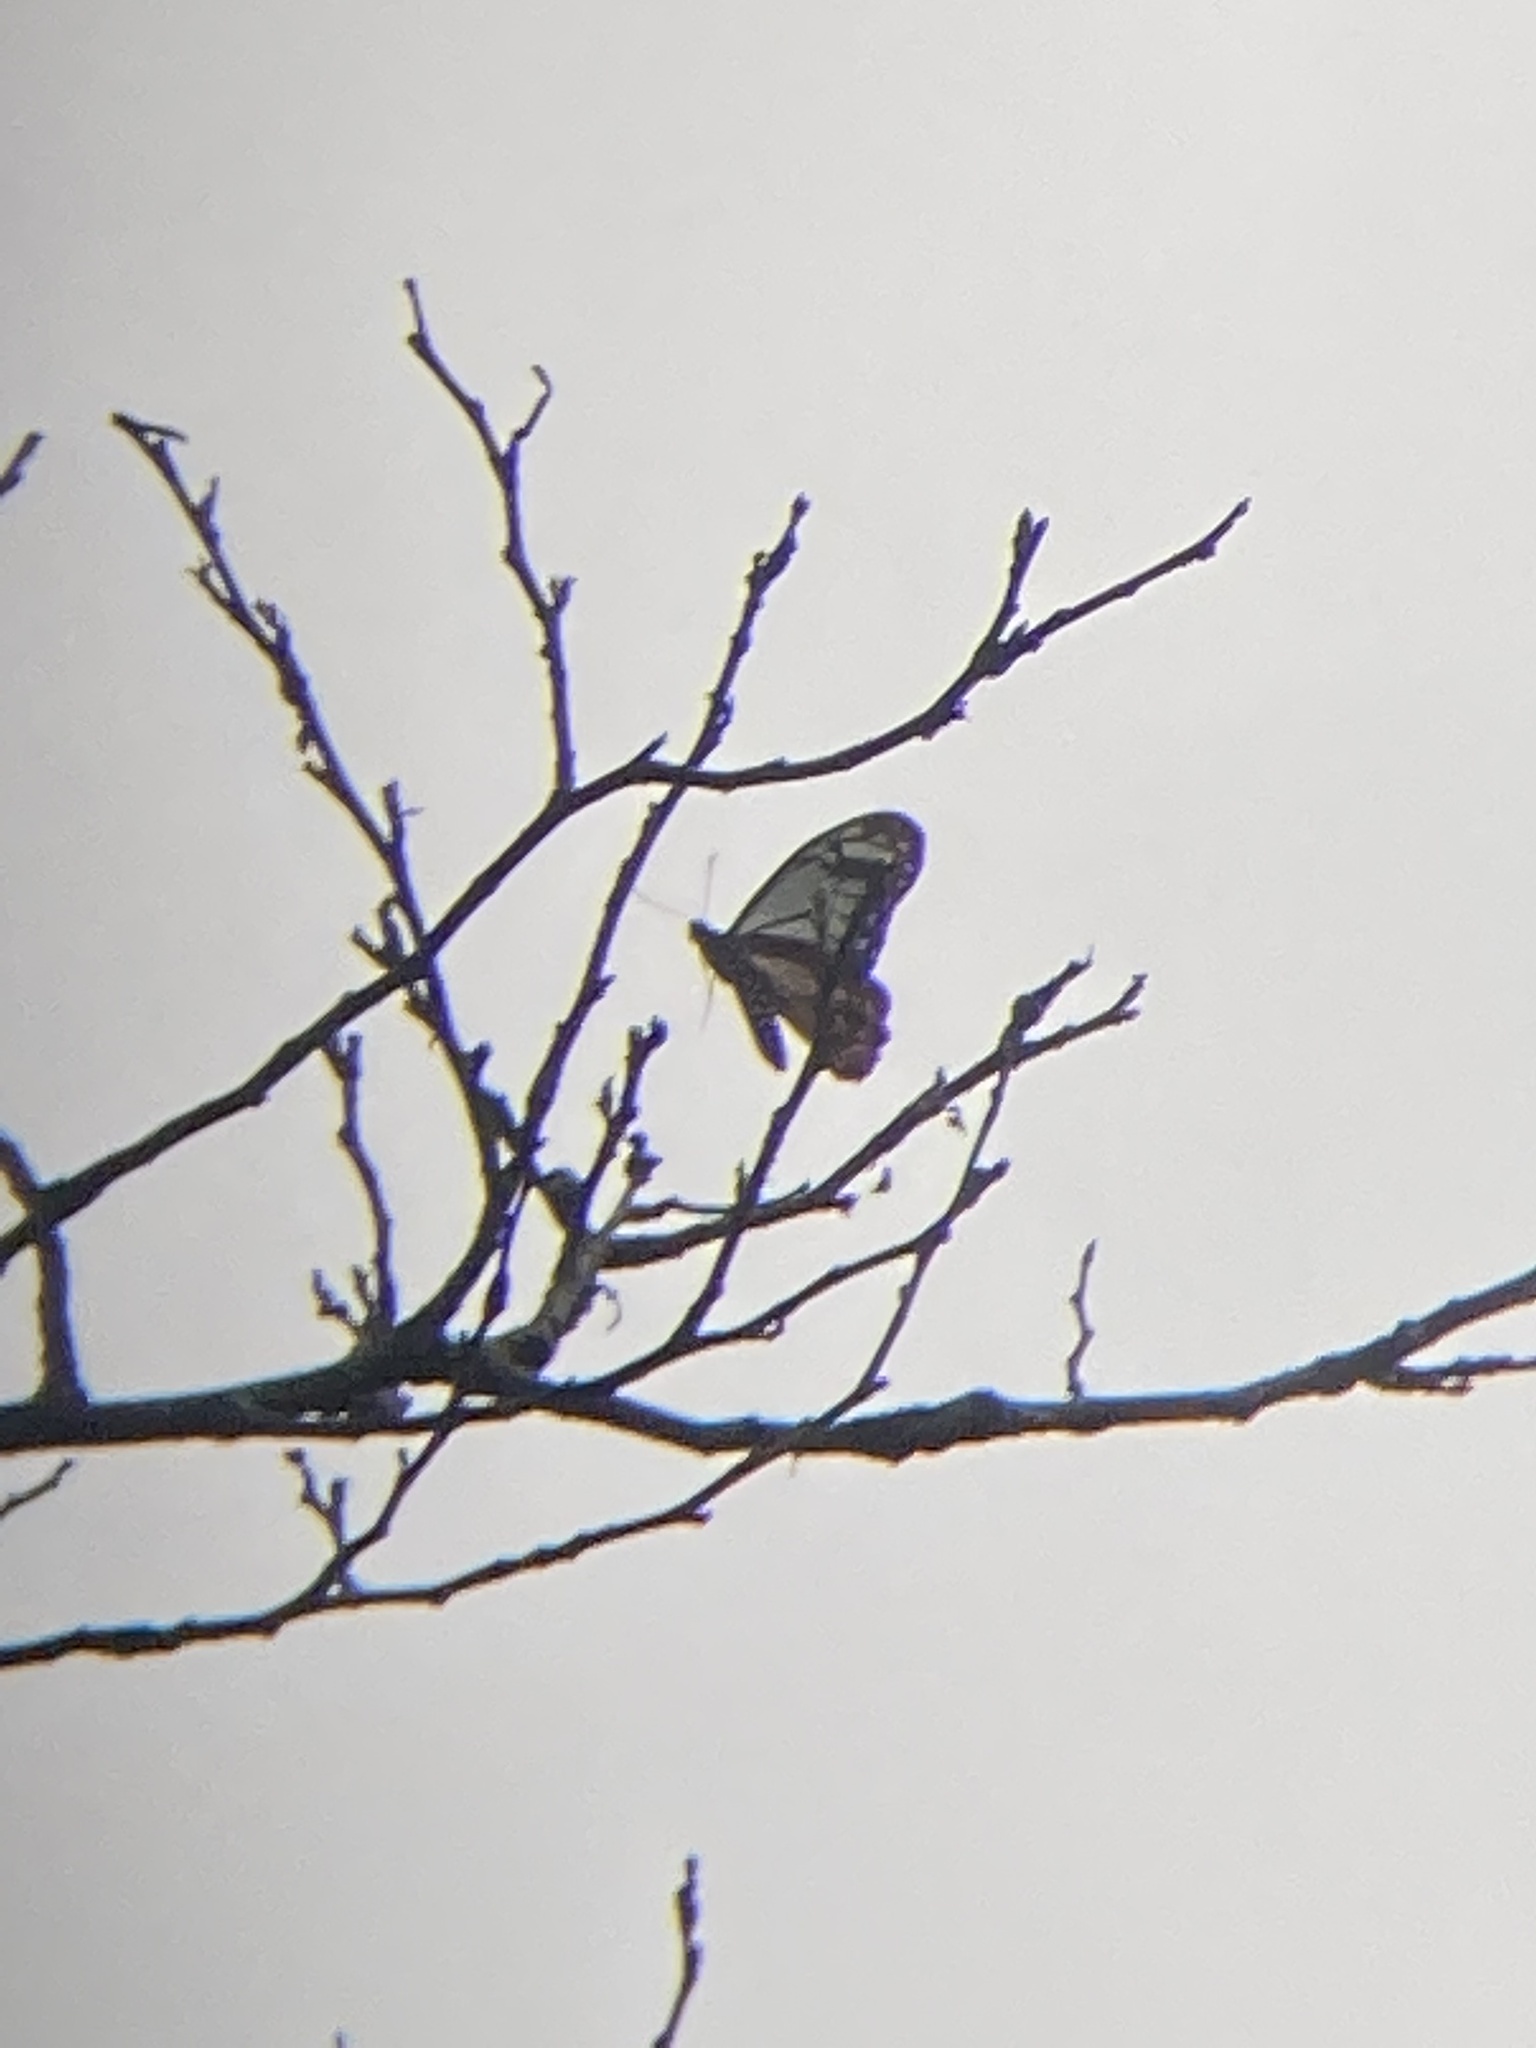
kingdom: Animalia
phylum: Arthropoda
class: Insecta
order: Lepidoptera
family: Nymphalidae
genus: Parantica
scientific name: Parantica sita
